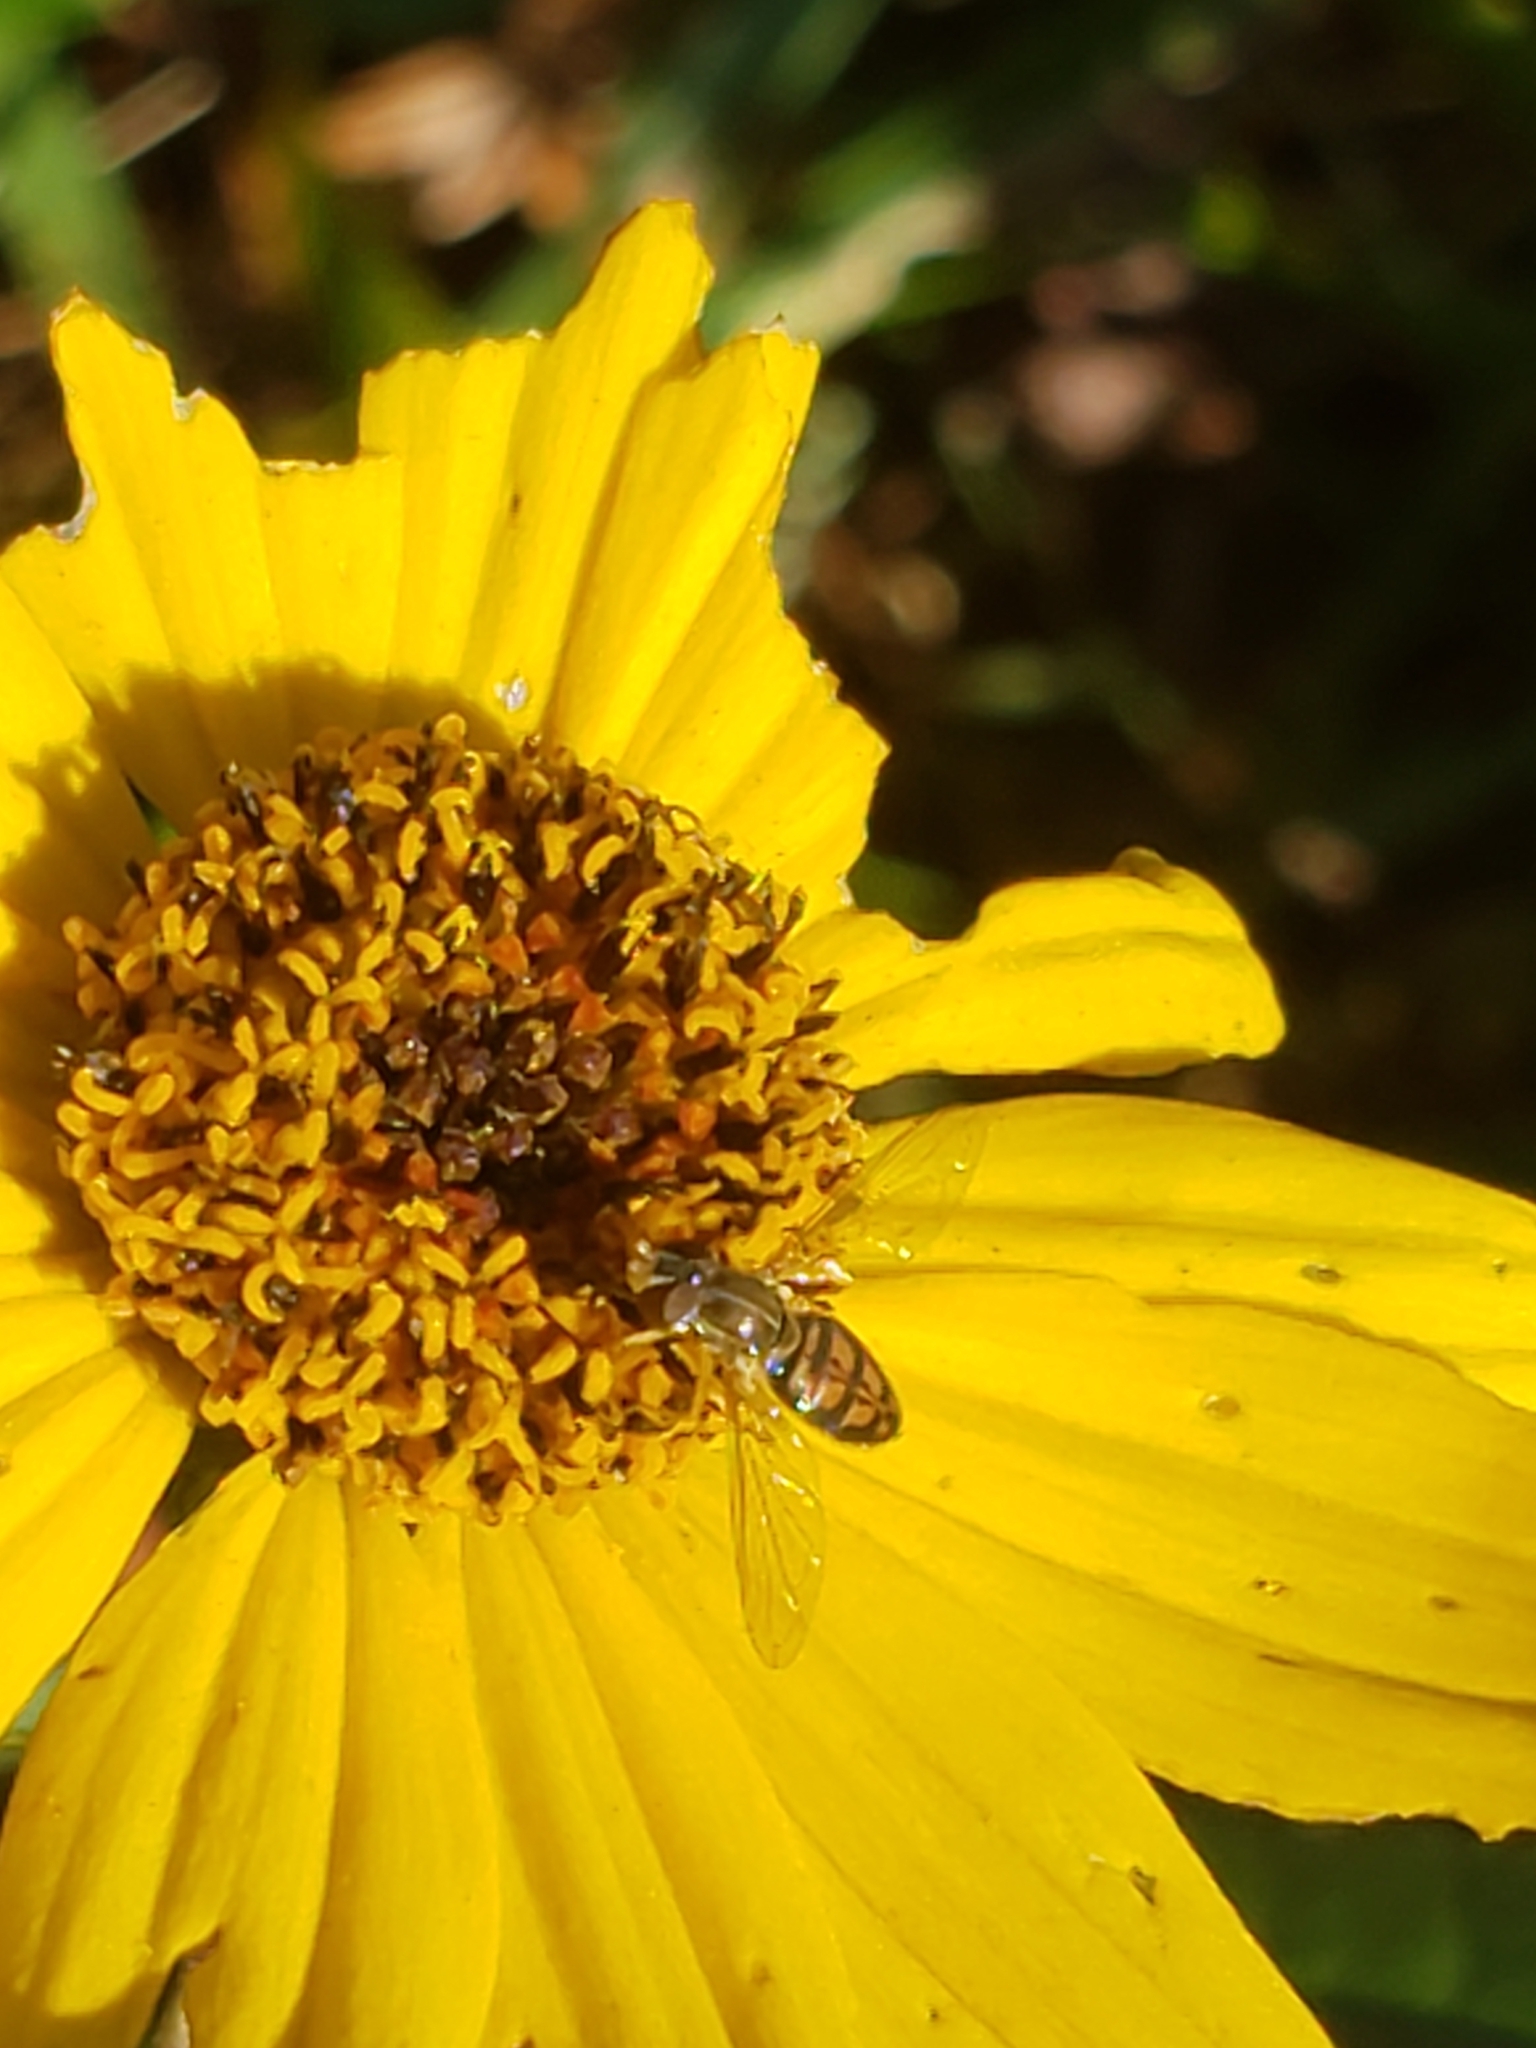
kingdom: Animalia
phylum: Arthropoda
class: Insecta
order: Diptera
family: Syrphidae
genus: Toxomerus
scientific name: Toxomerus marginatus
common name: Syrphid fly
